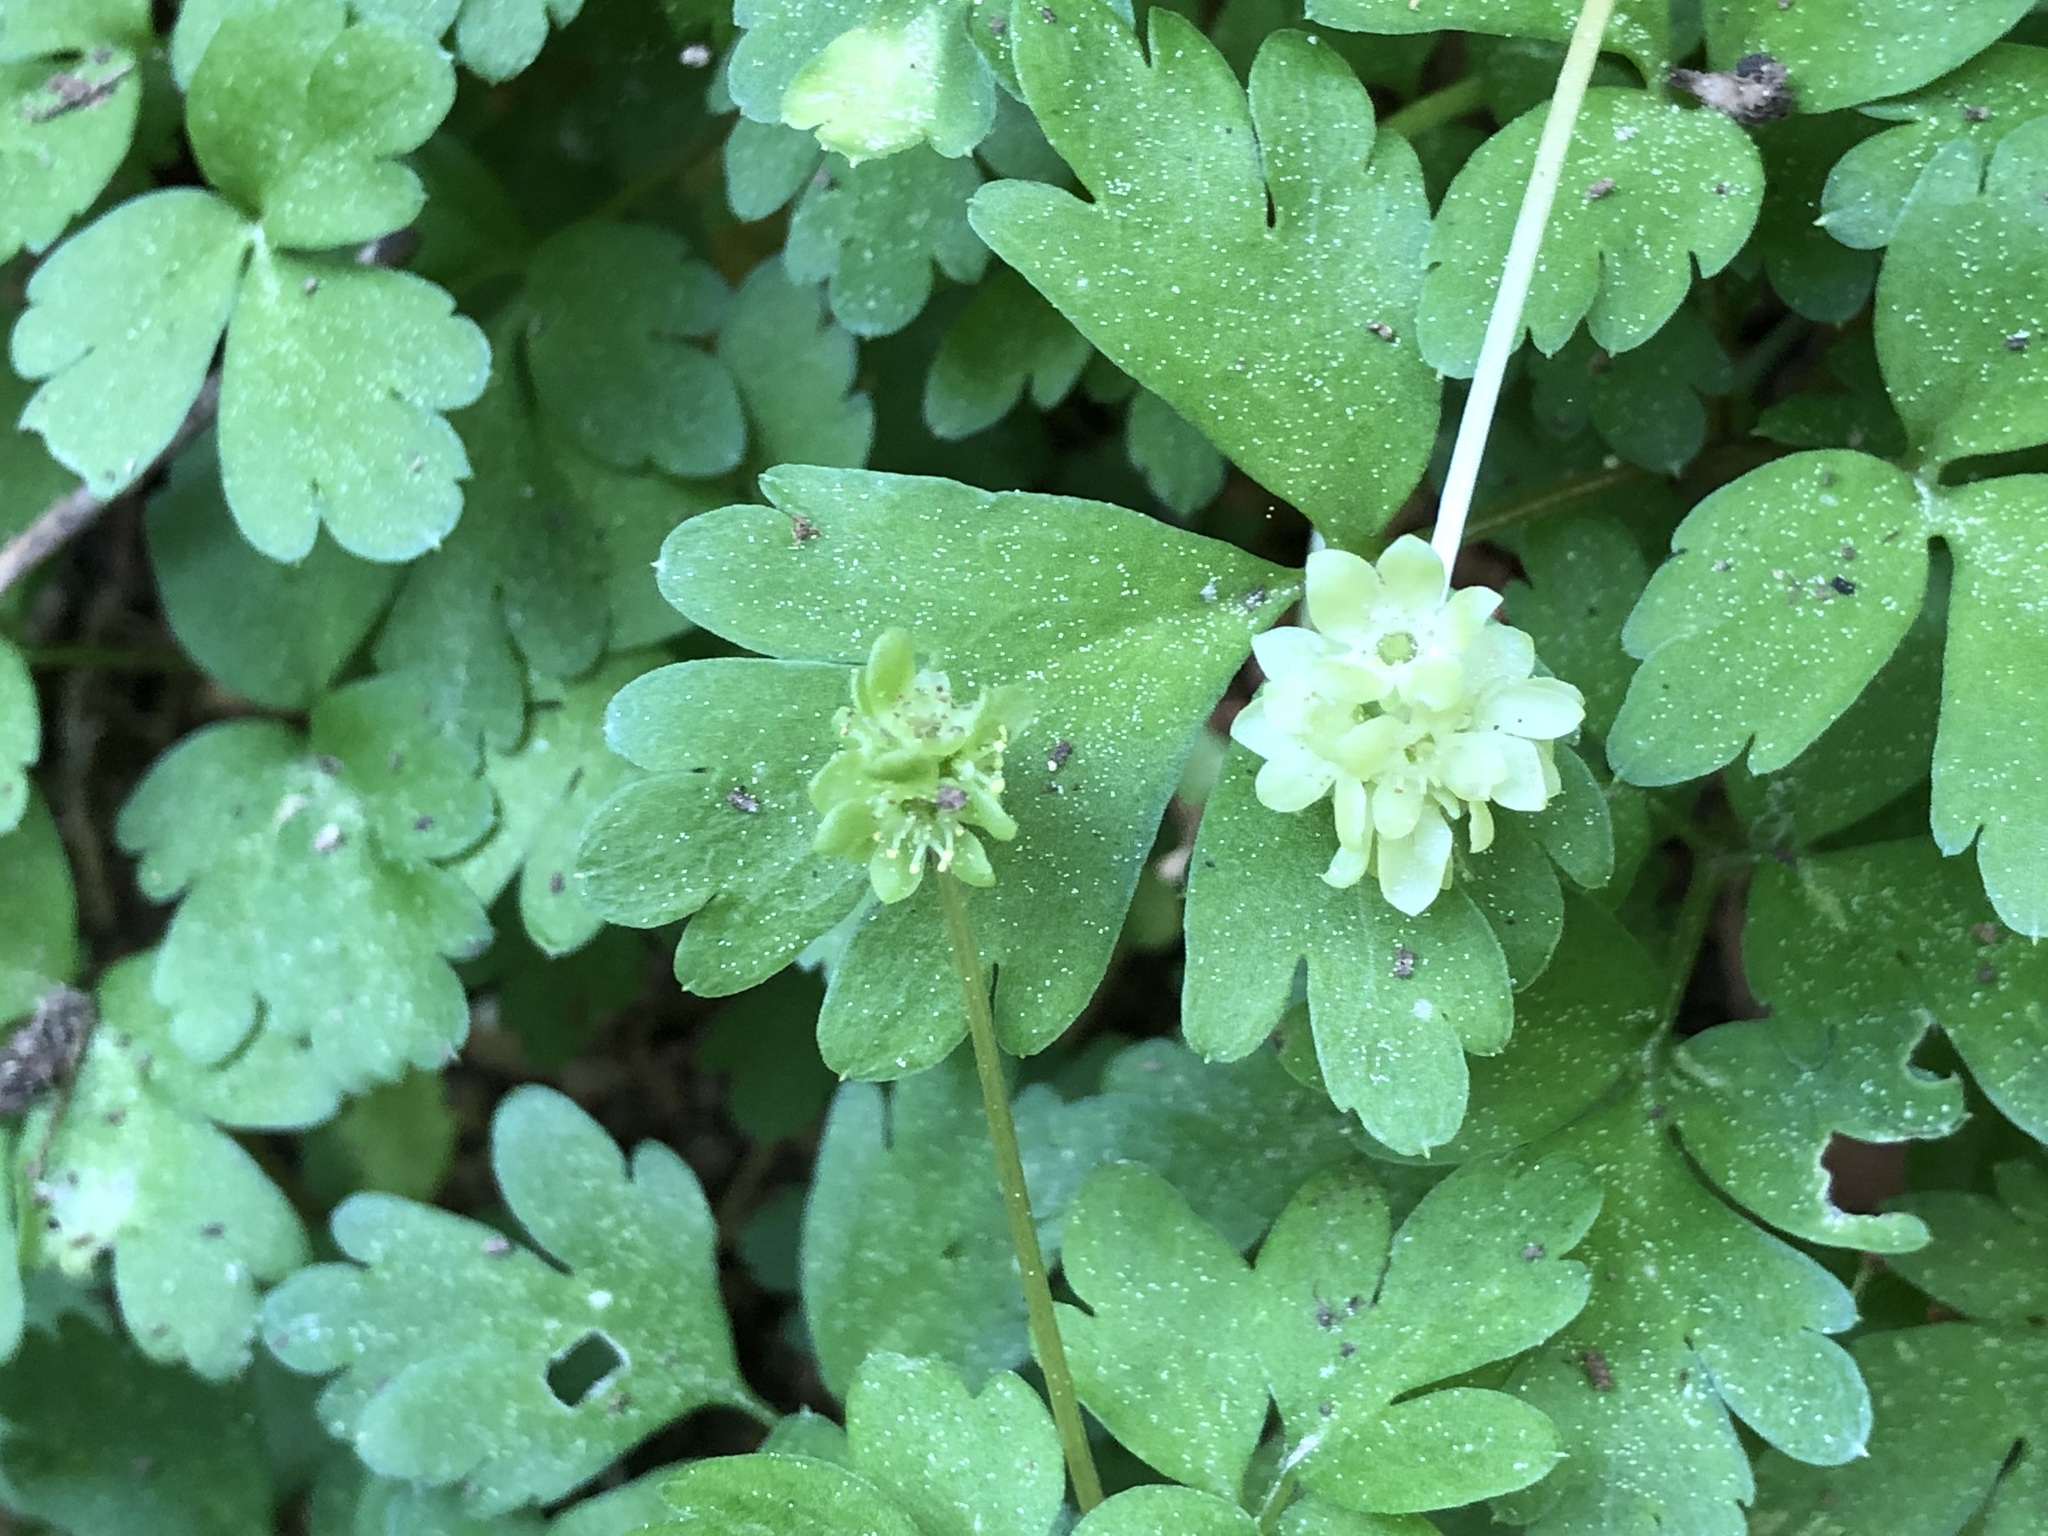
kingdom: Plantae
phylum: Tracheophyta
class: Magnoliopsida
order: Dipsacales
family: Viburnaceae
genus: Adoxa
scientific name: Adoxa moschatellina
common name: Moschatel
